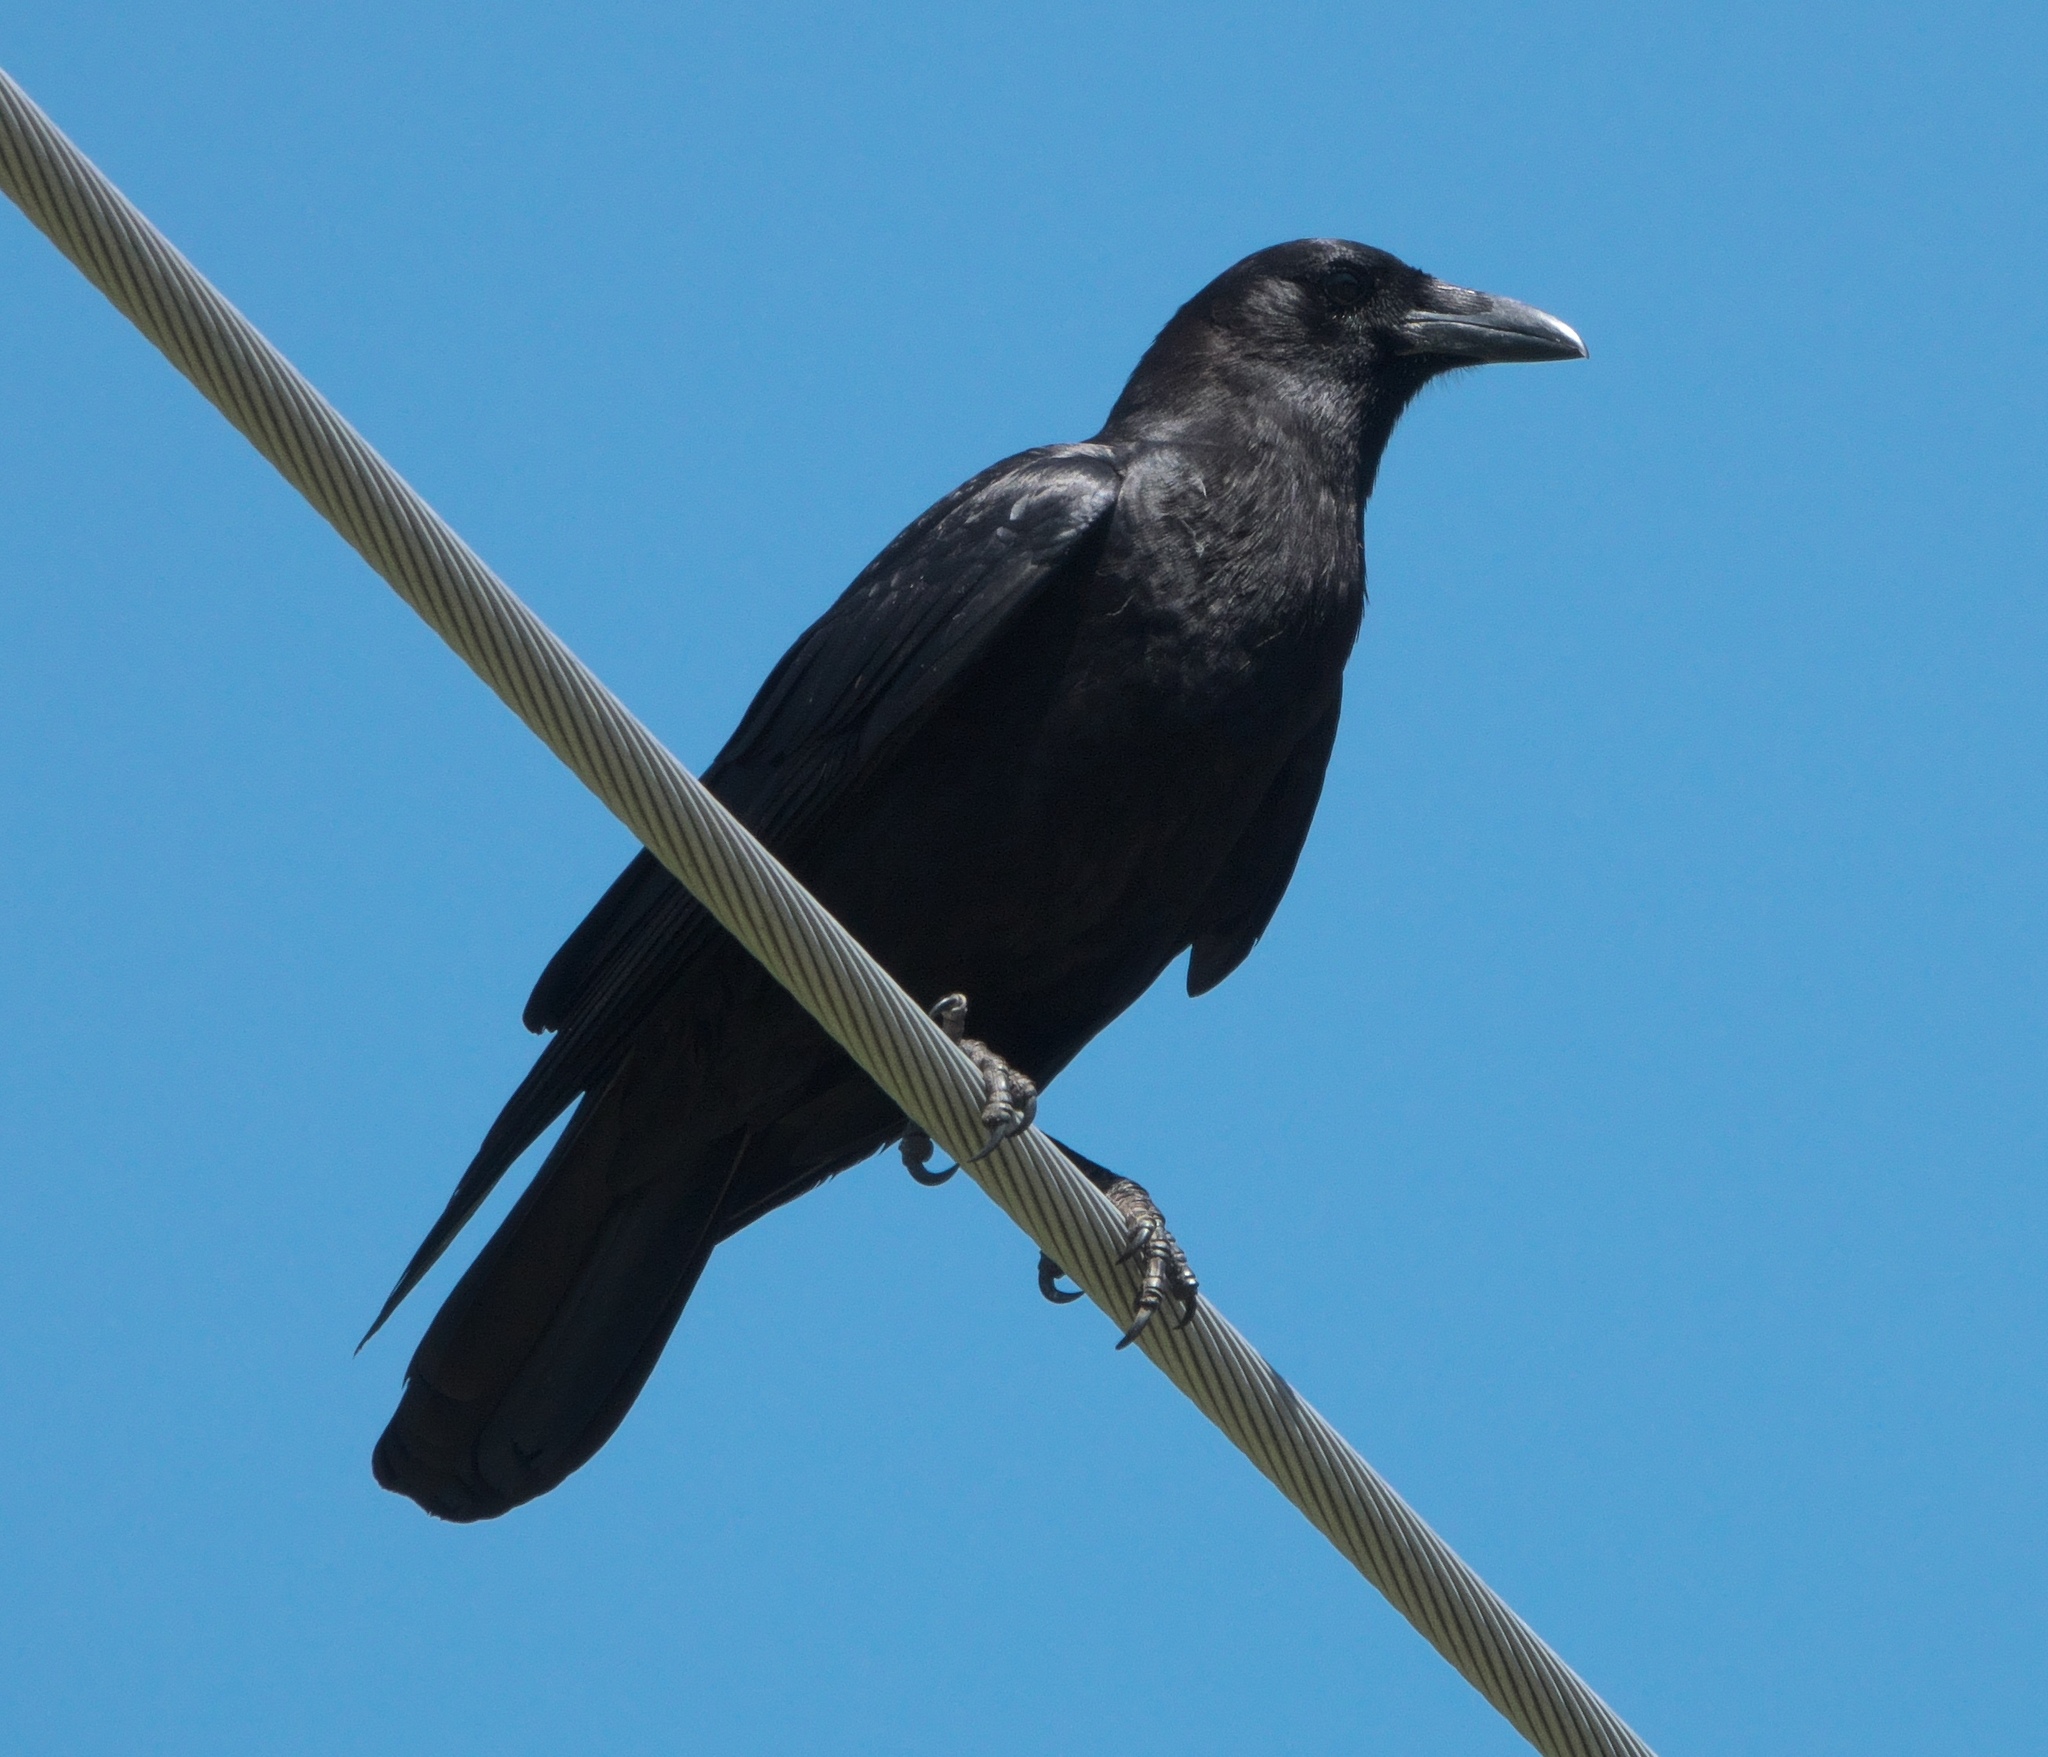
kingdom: Animalia
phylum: Chordata
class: Aves
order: Passeriformes
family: Corvidae
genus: Corvus
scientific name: Corvus brachyrhynchos
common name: American crow
